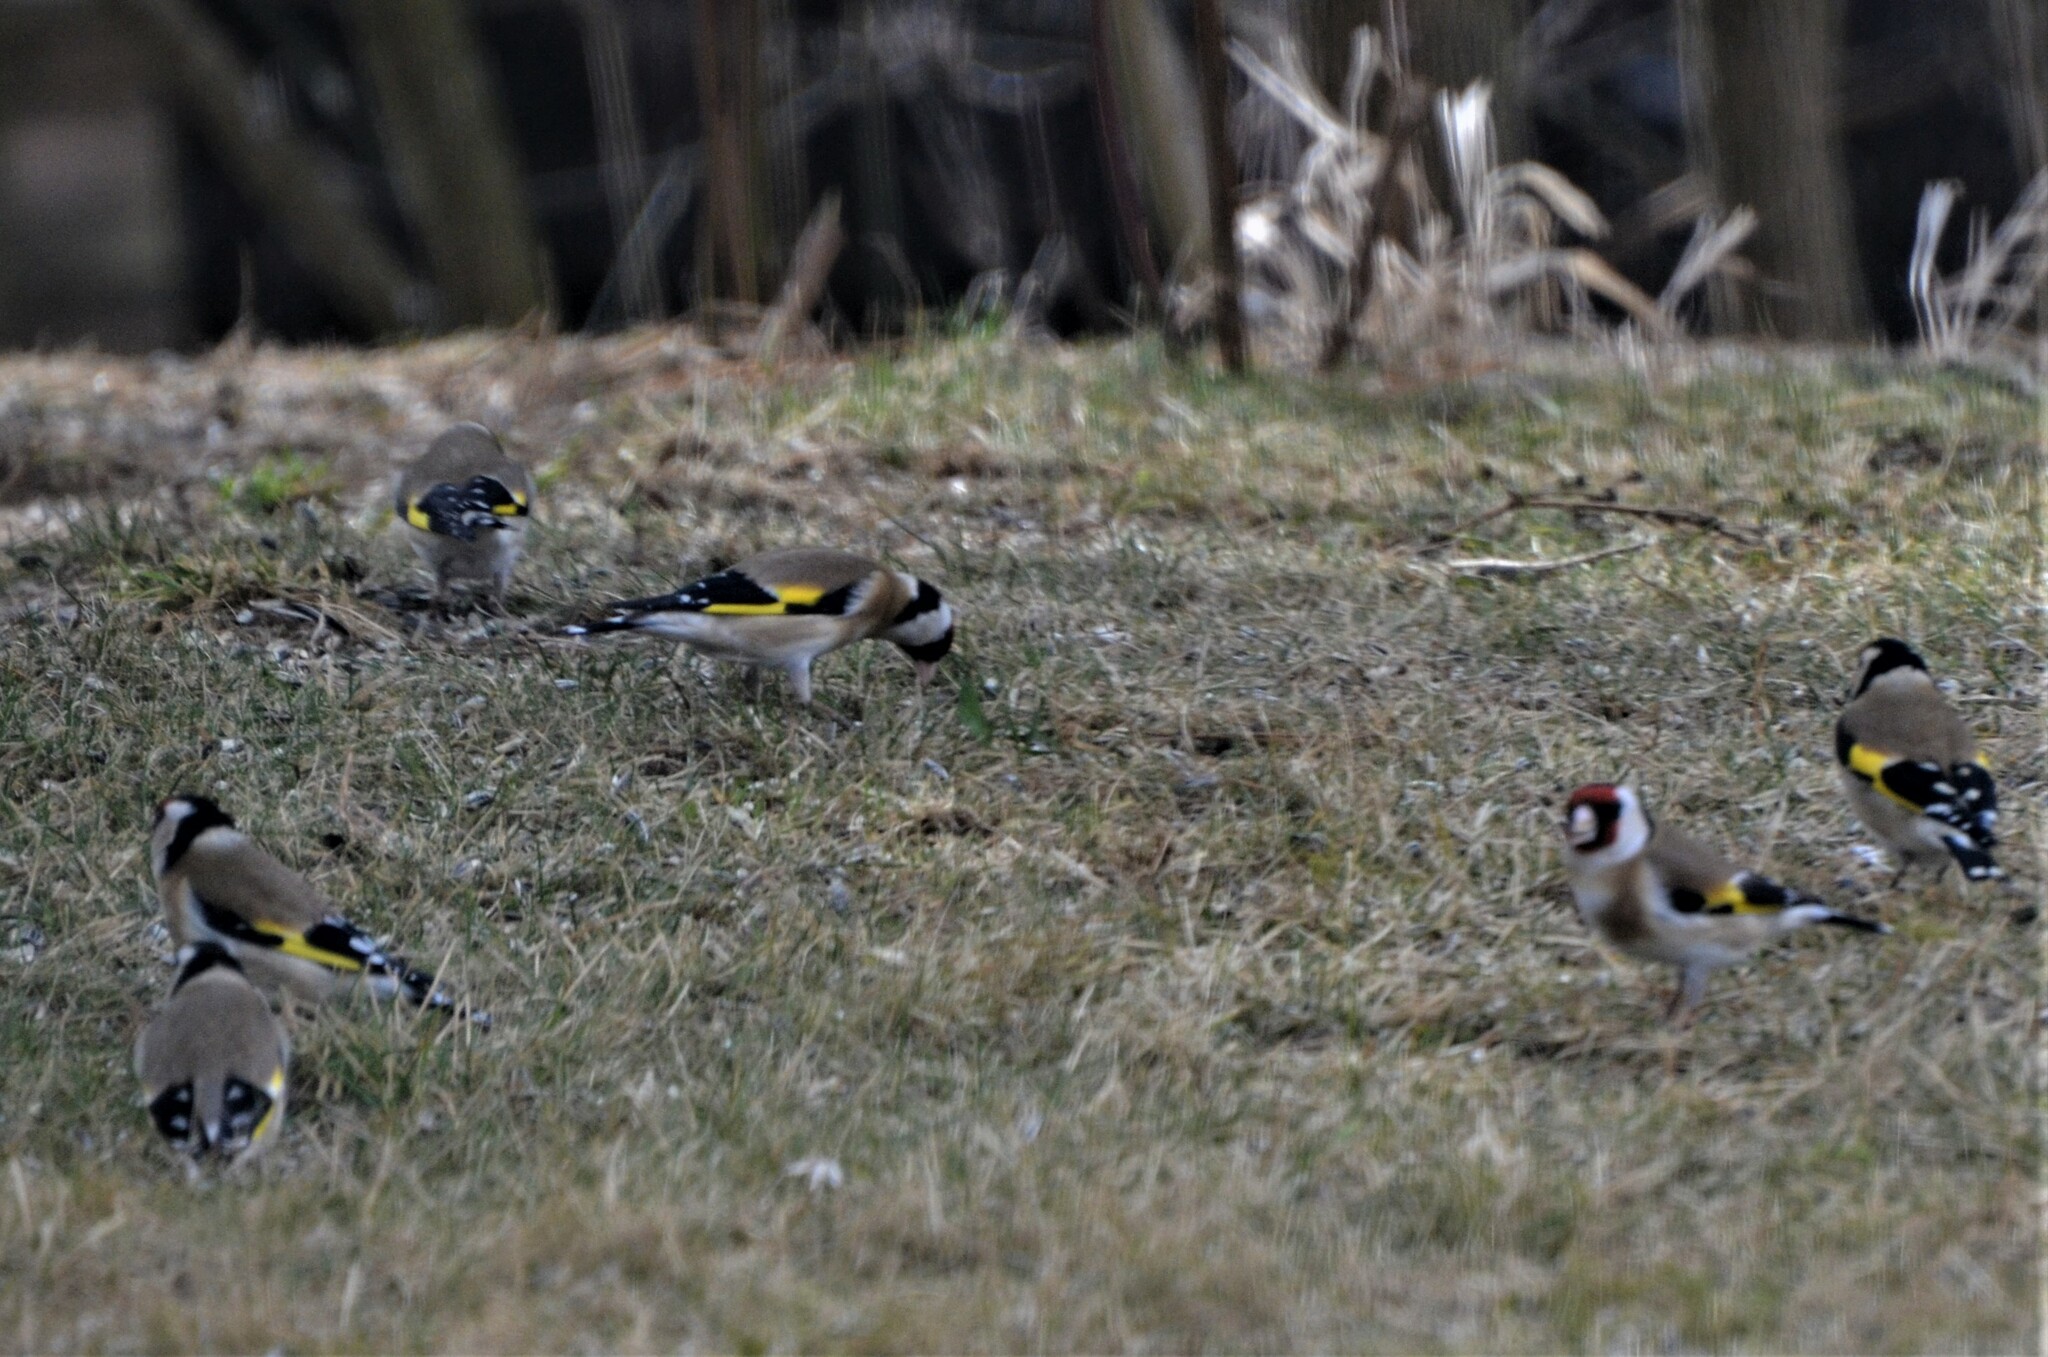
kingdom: Animalia
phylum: Chordata
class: Aves
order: Passeriformes
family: Fringillidae
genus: Carduelis
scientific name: Carduelis carduelis
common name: European goldfinch
